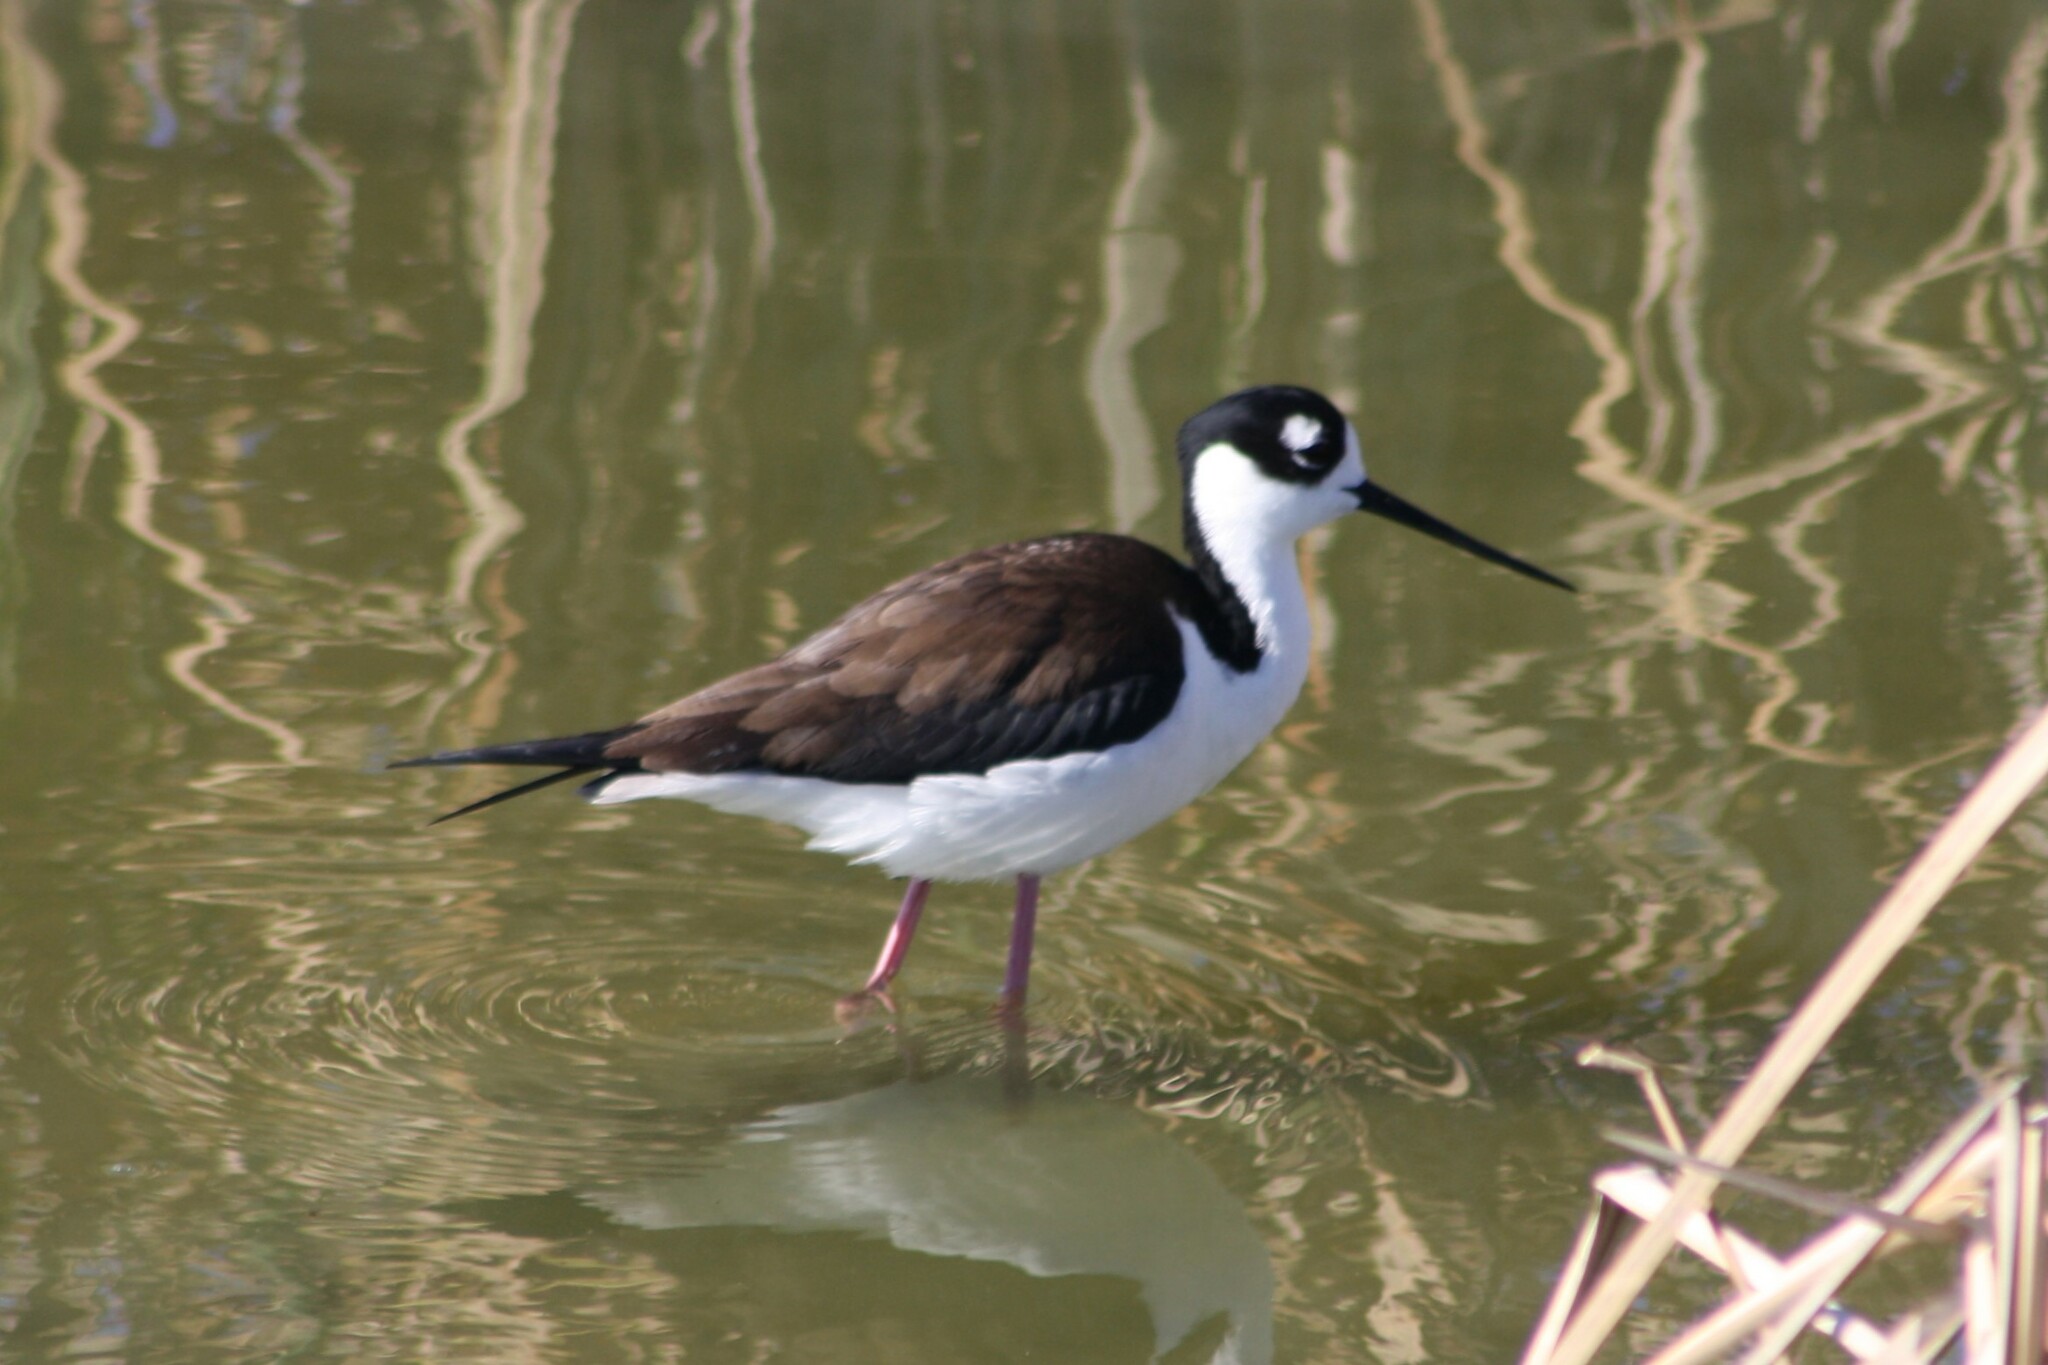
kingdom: Animalia
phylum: Chordata
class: Aves
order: Charadriiformes
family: Recurvirostridae
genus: Himantopus
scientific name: Himantopus mexicanus
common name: Black-necked stilt
